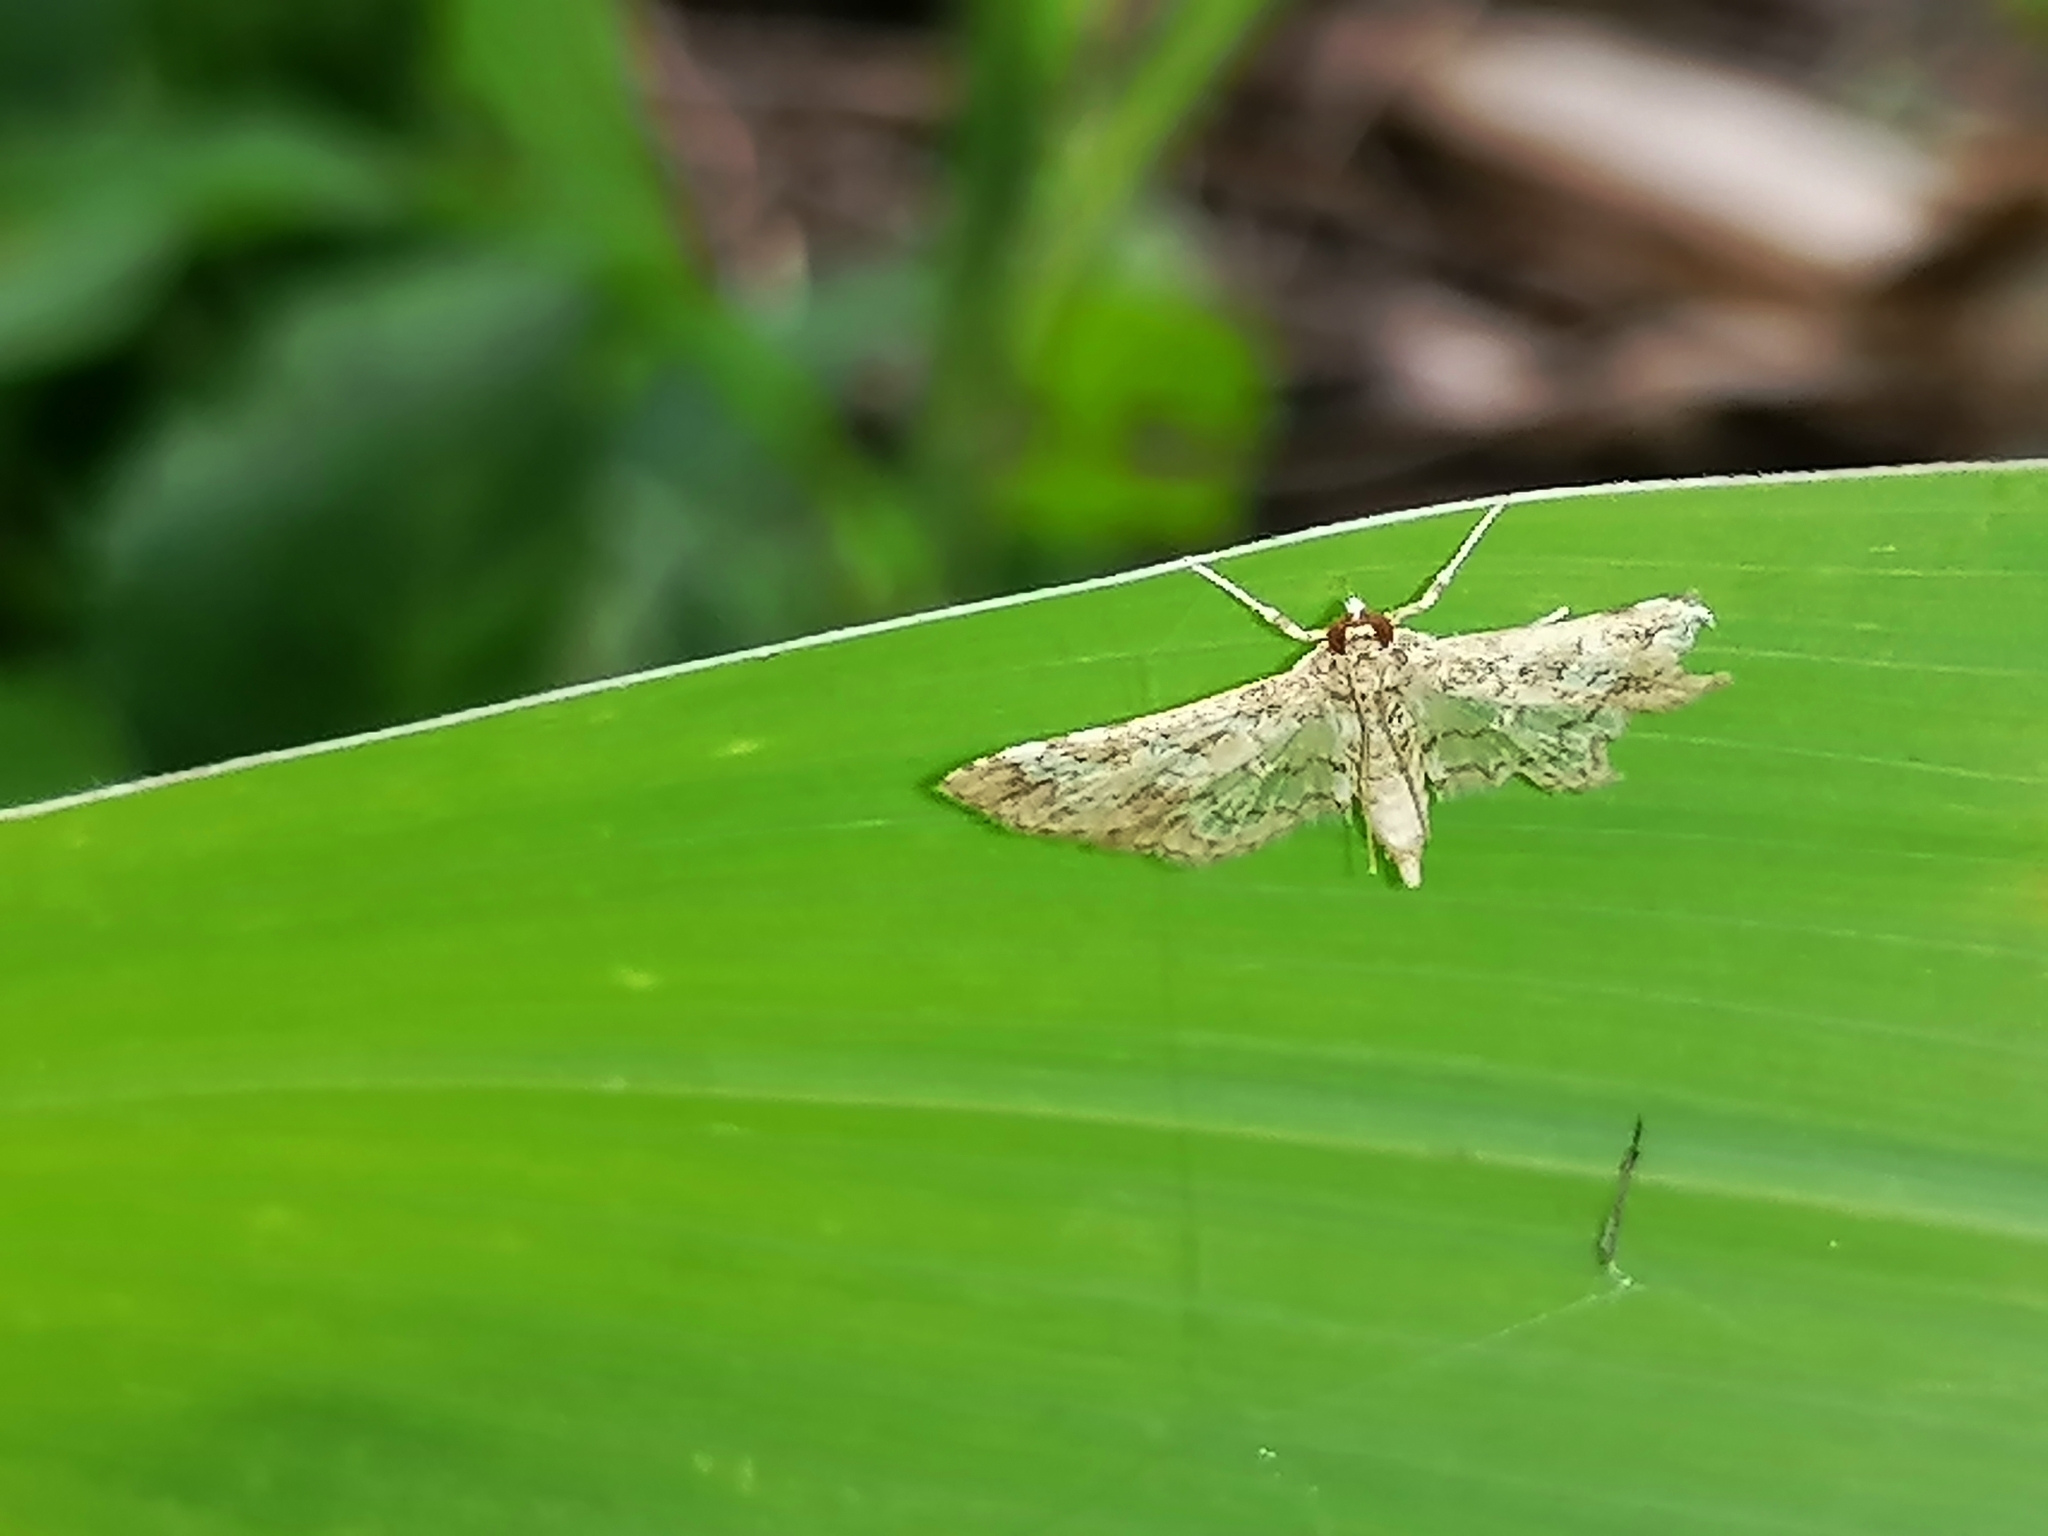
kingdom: Animalia
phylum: Arthropoda
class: Insecta
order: Lepidoptera
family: Crambidae
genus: Hydriris
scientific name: Hydriris ornatalis
